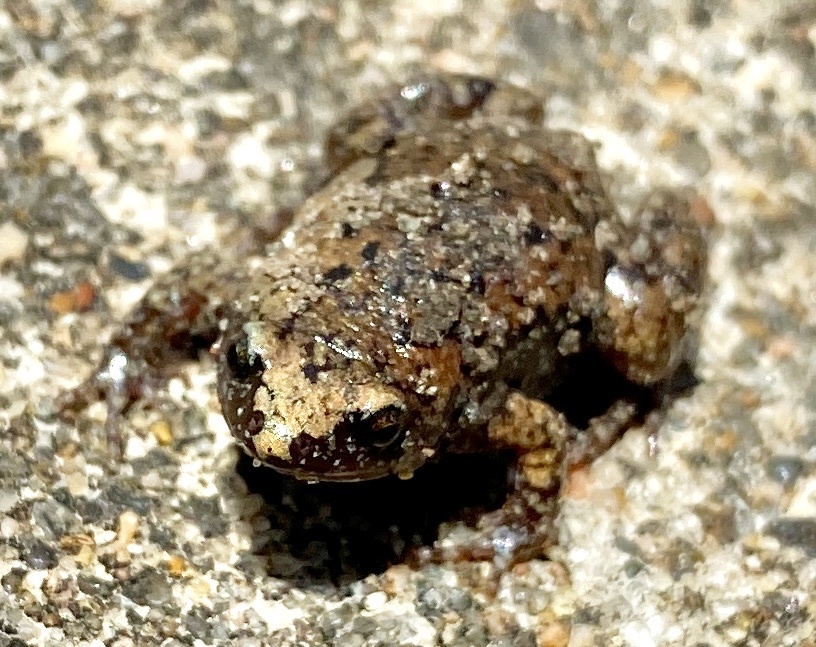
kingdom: Animalia
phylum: Chordata
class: Amphibia
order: Anura
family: Microhylidae
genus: Gastrophryne
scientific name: Gastrophryne carolinensis
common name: Eastern narrowmouth toad
